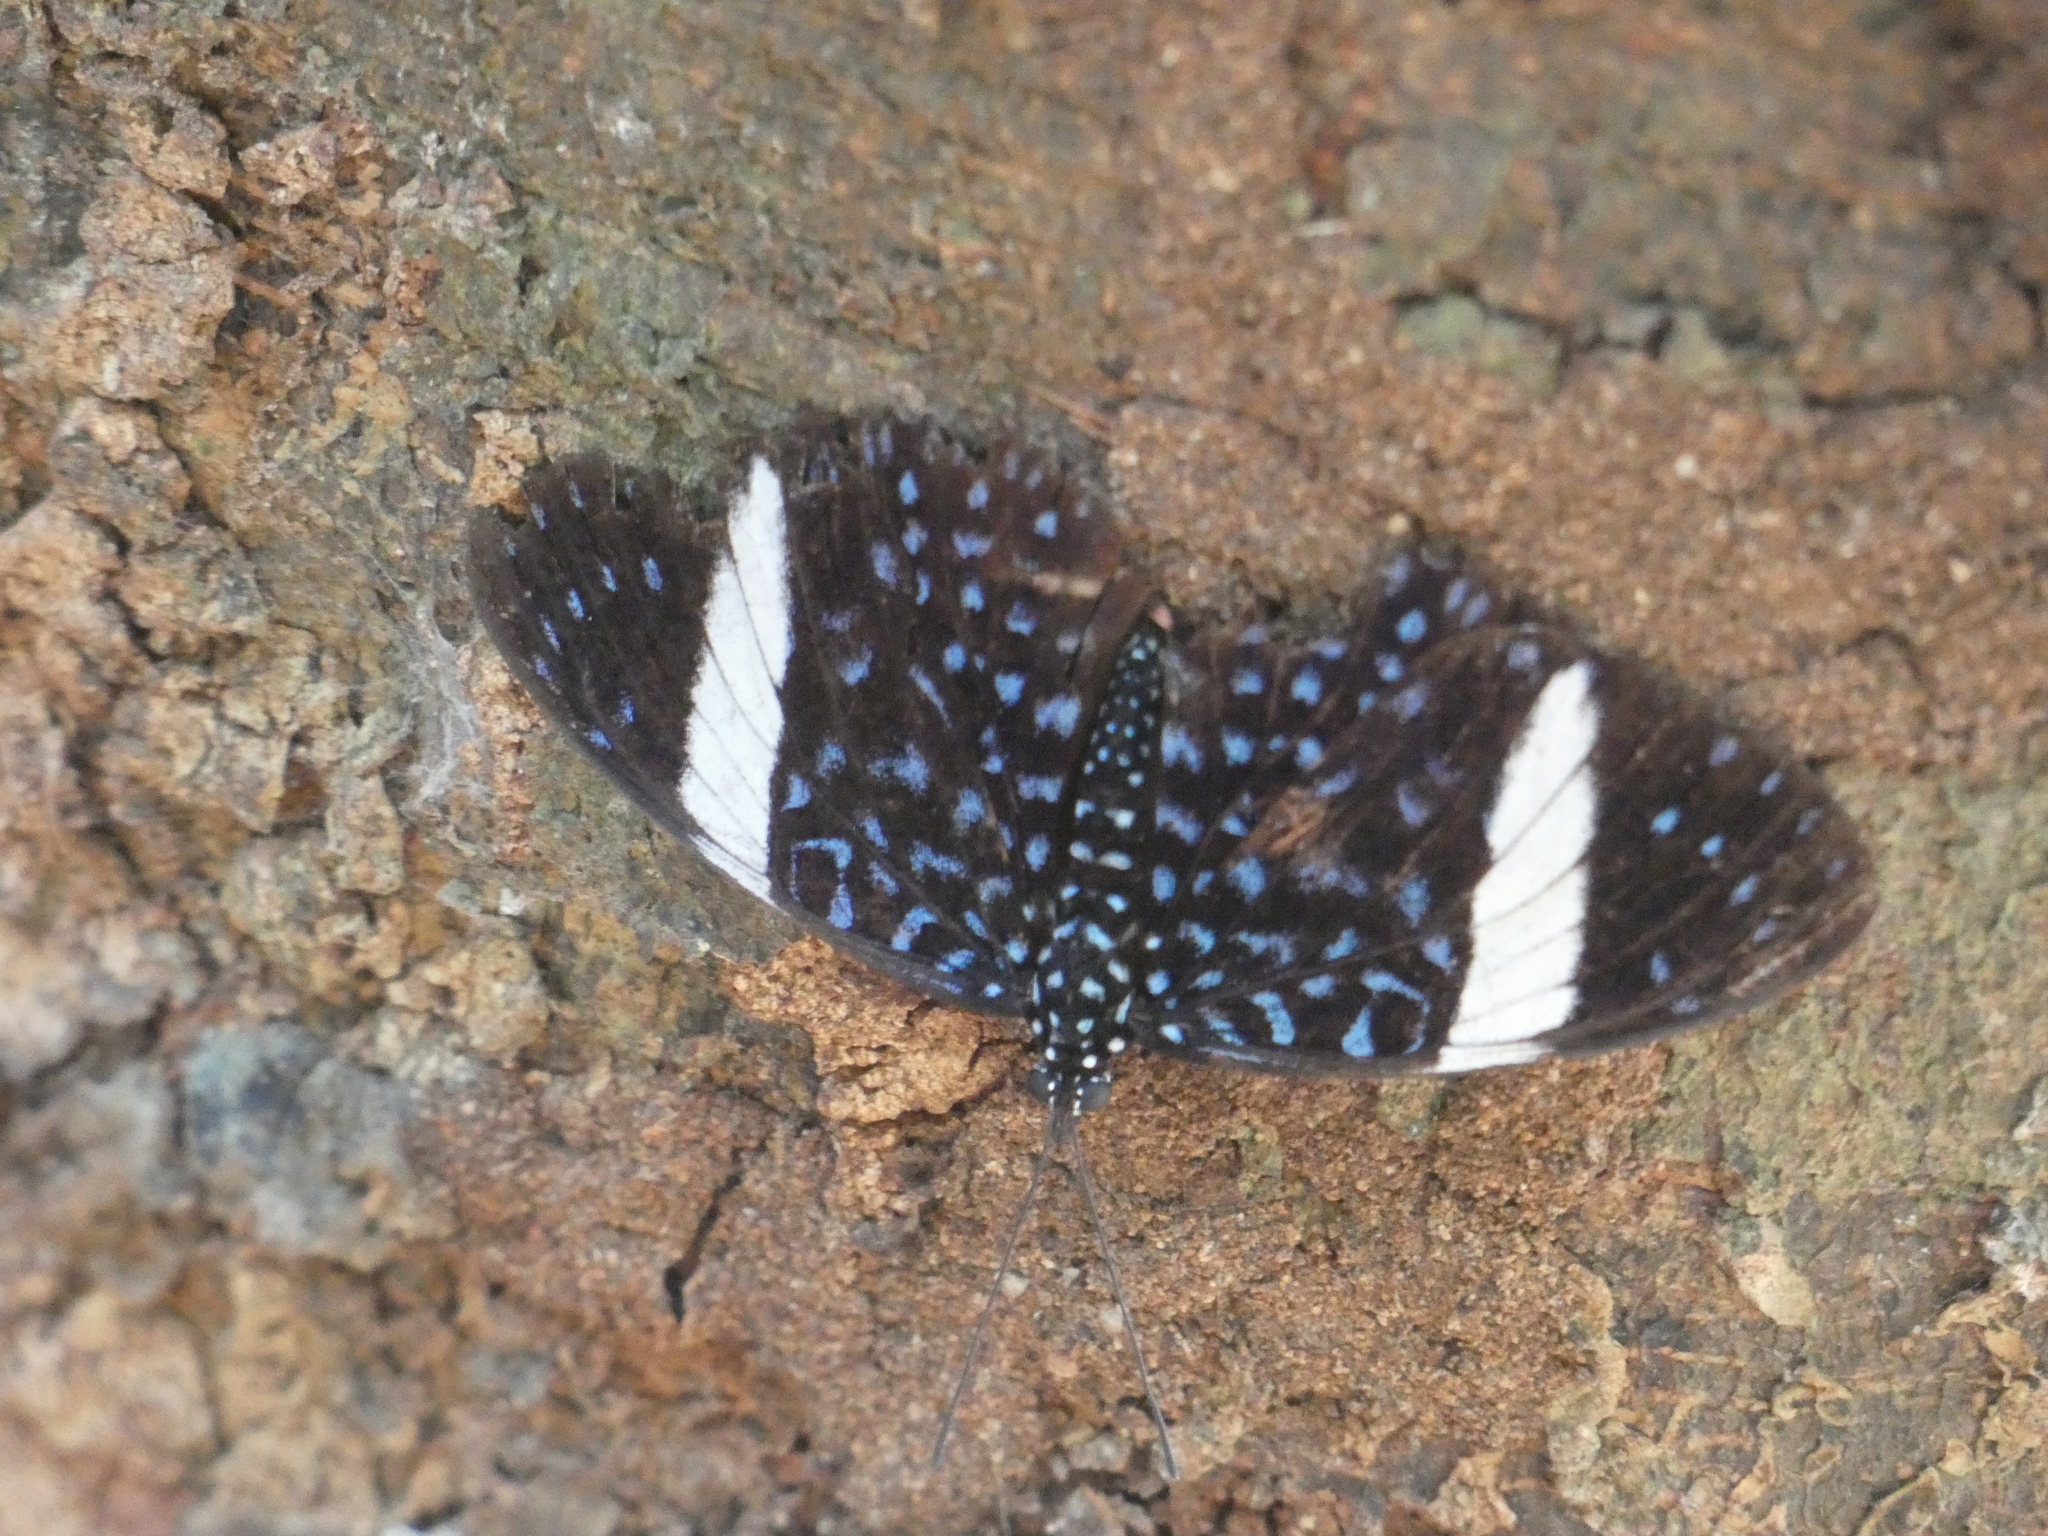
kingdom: Animalia
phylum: Arthropoda
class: Insecta
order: Lepidoptera
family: Nymphalidae
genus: Hamadryas
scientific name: Hamadryas laodamia
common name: Starry night cracker
